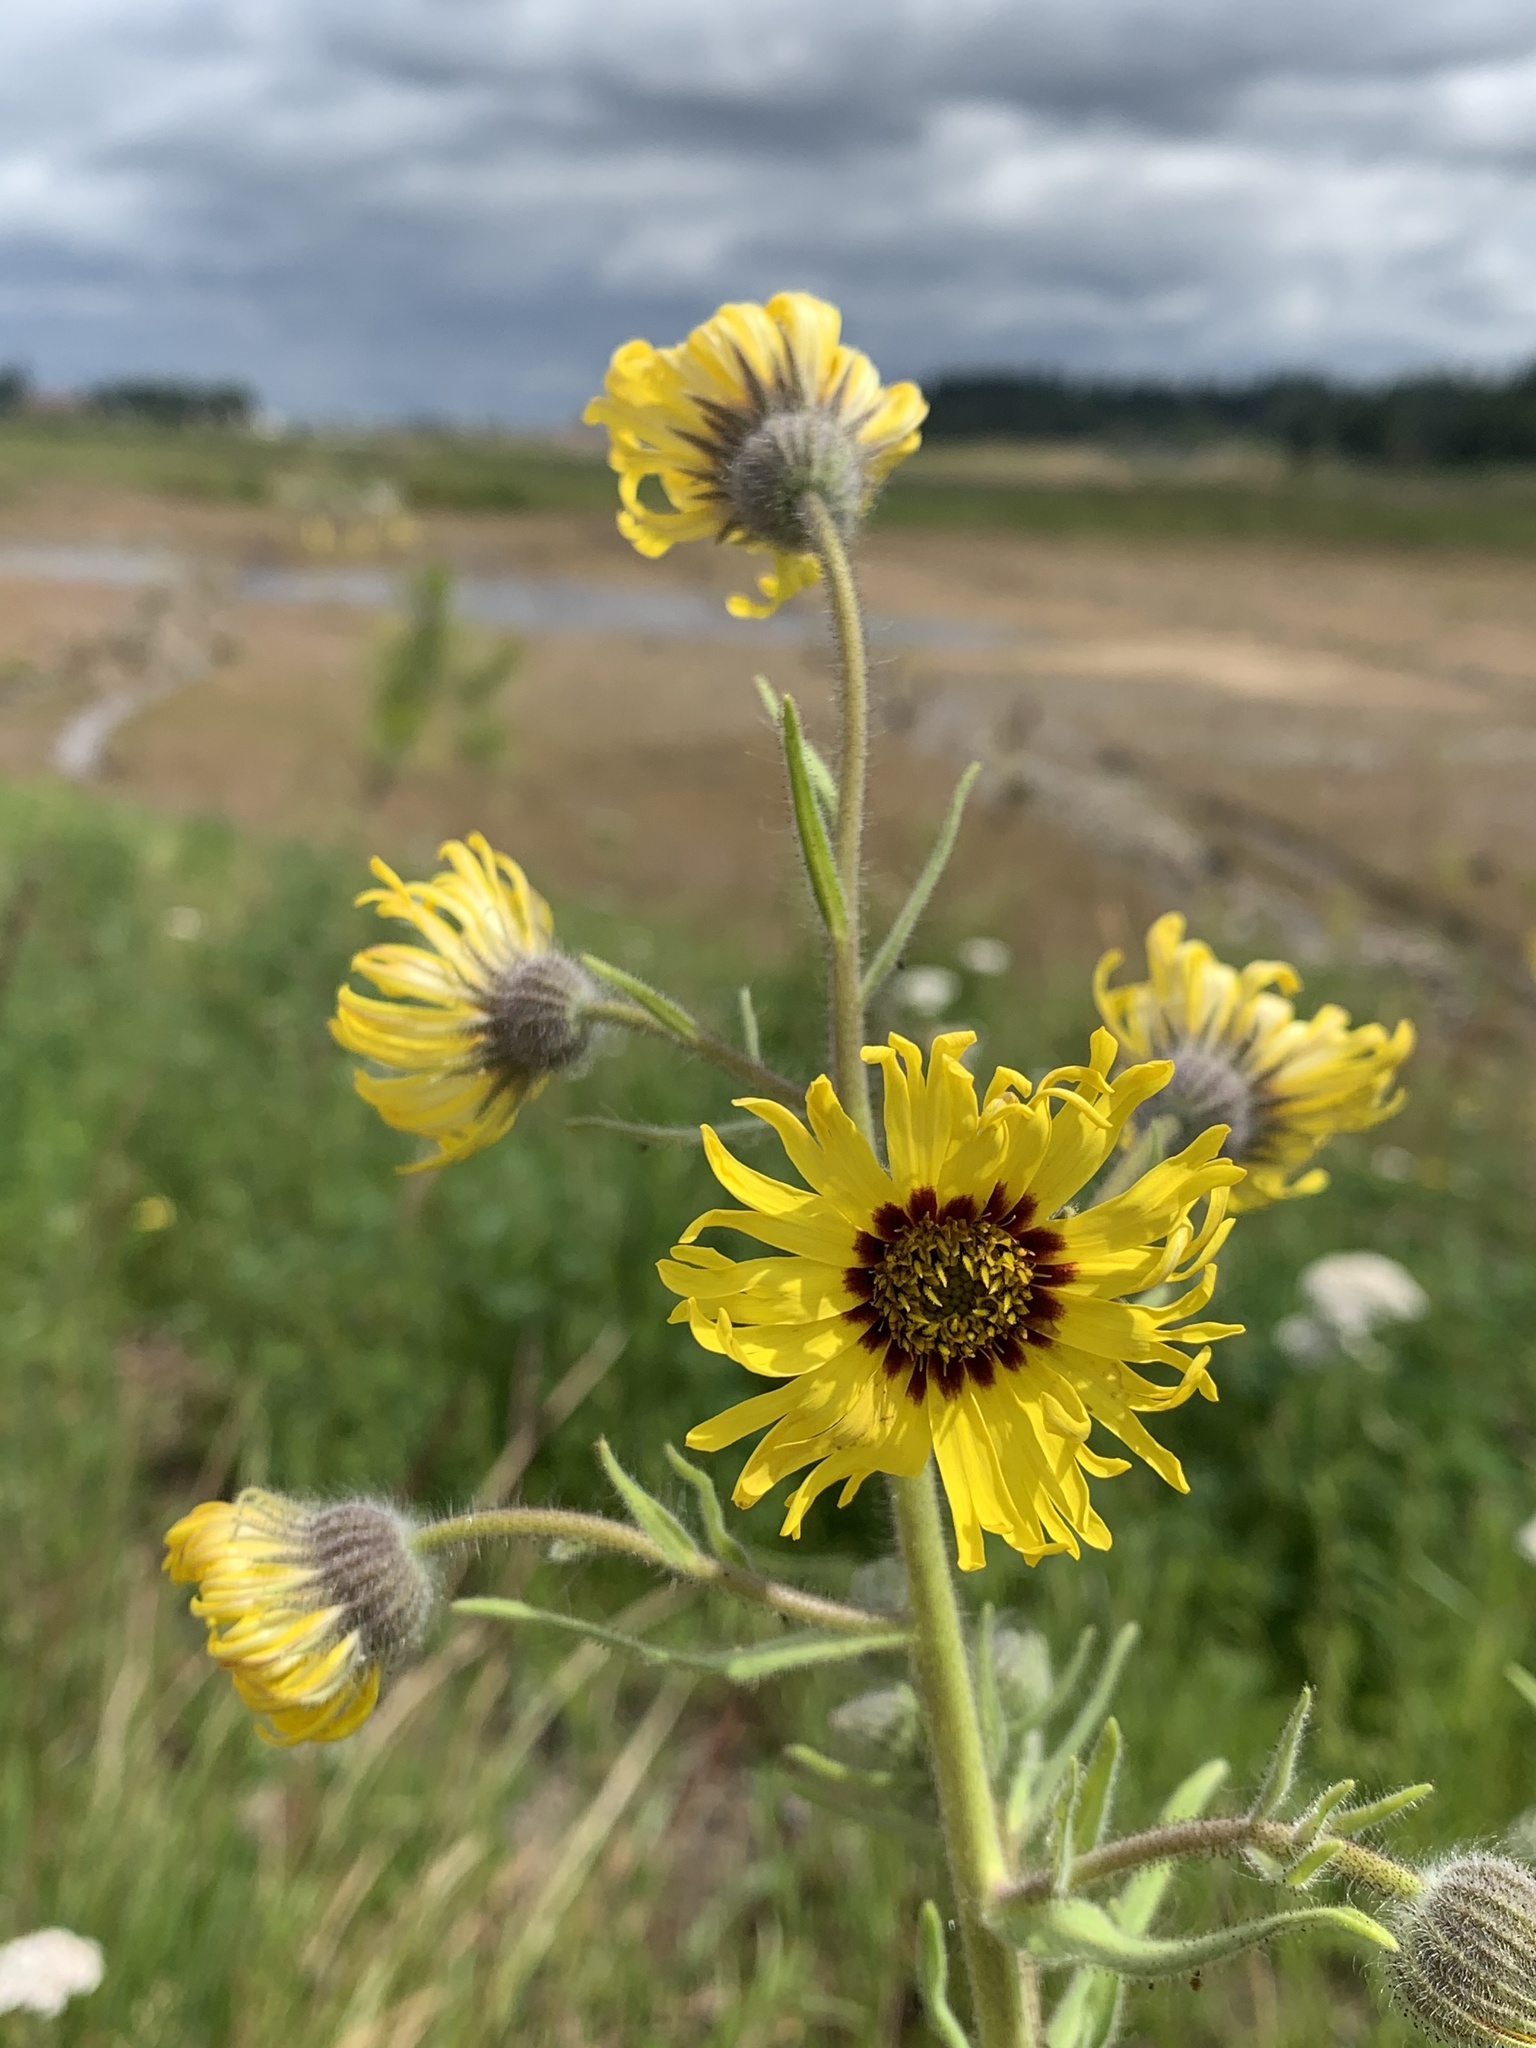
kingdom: Plantae
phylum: Tracheophyta
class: Magnoliopsida
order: Asterales
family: Asteraceae
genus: Madia
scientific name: Madia elegans
